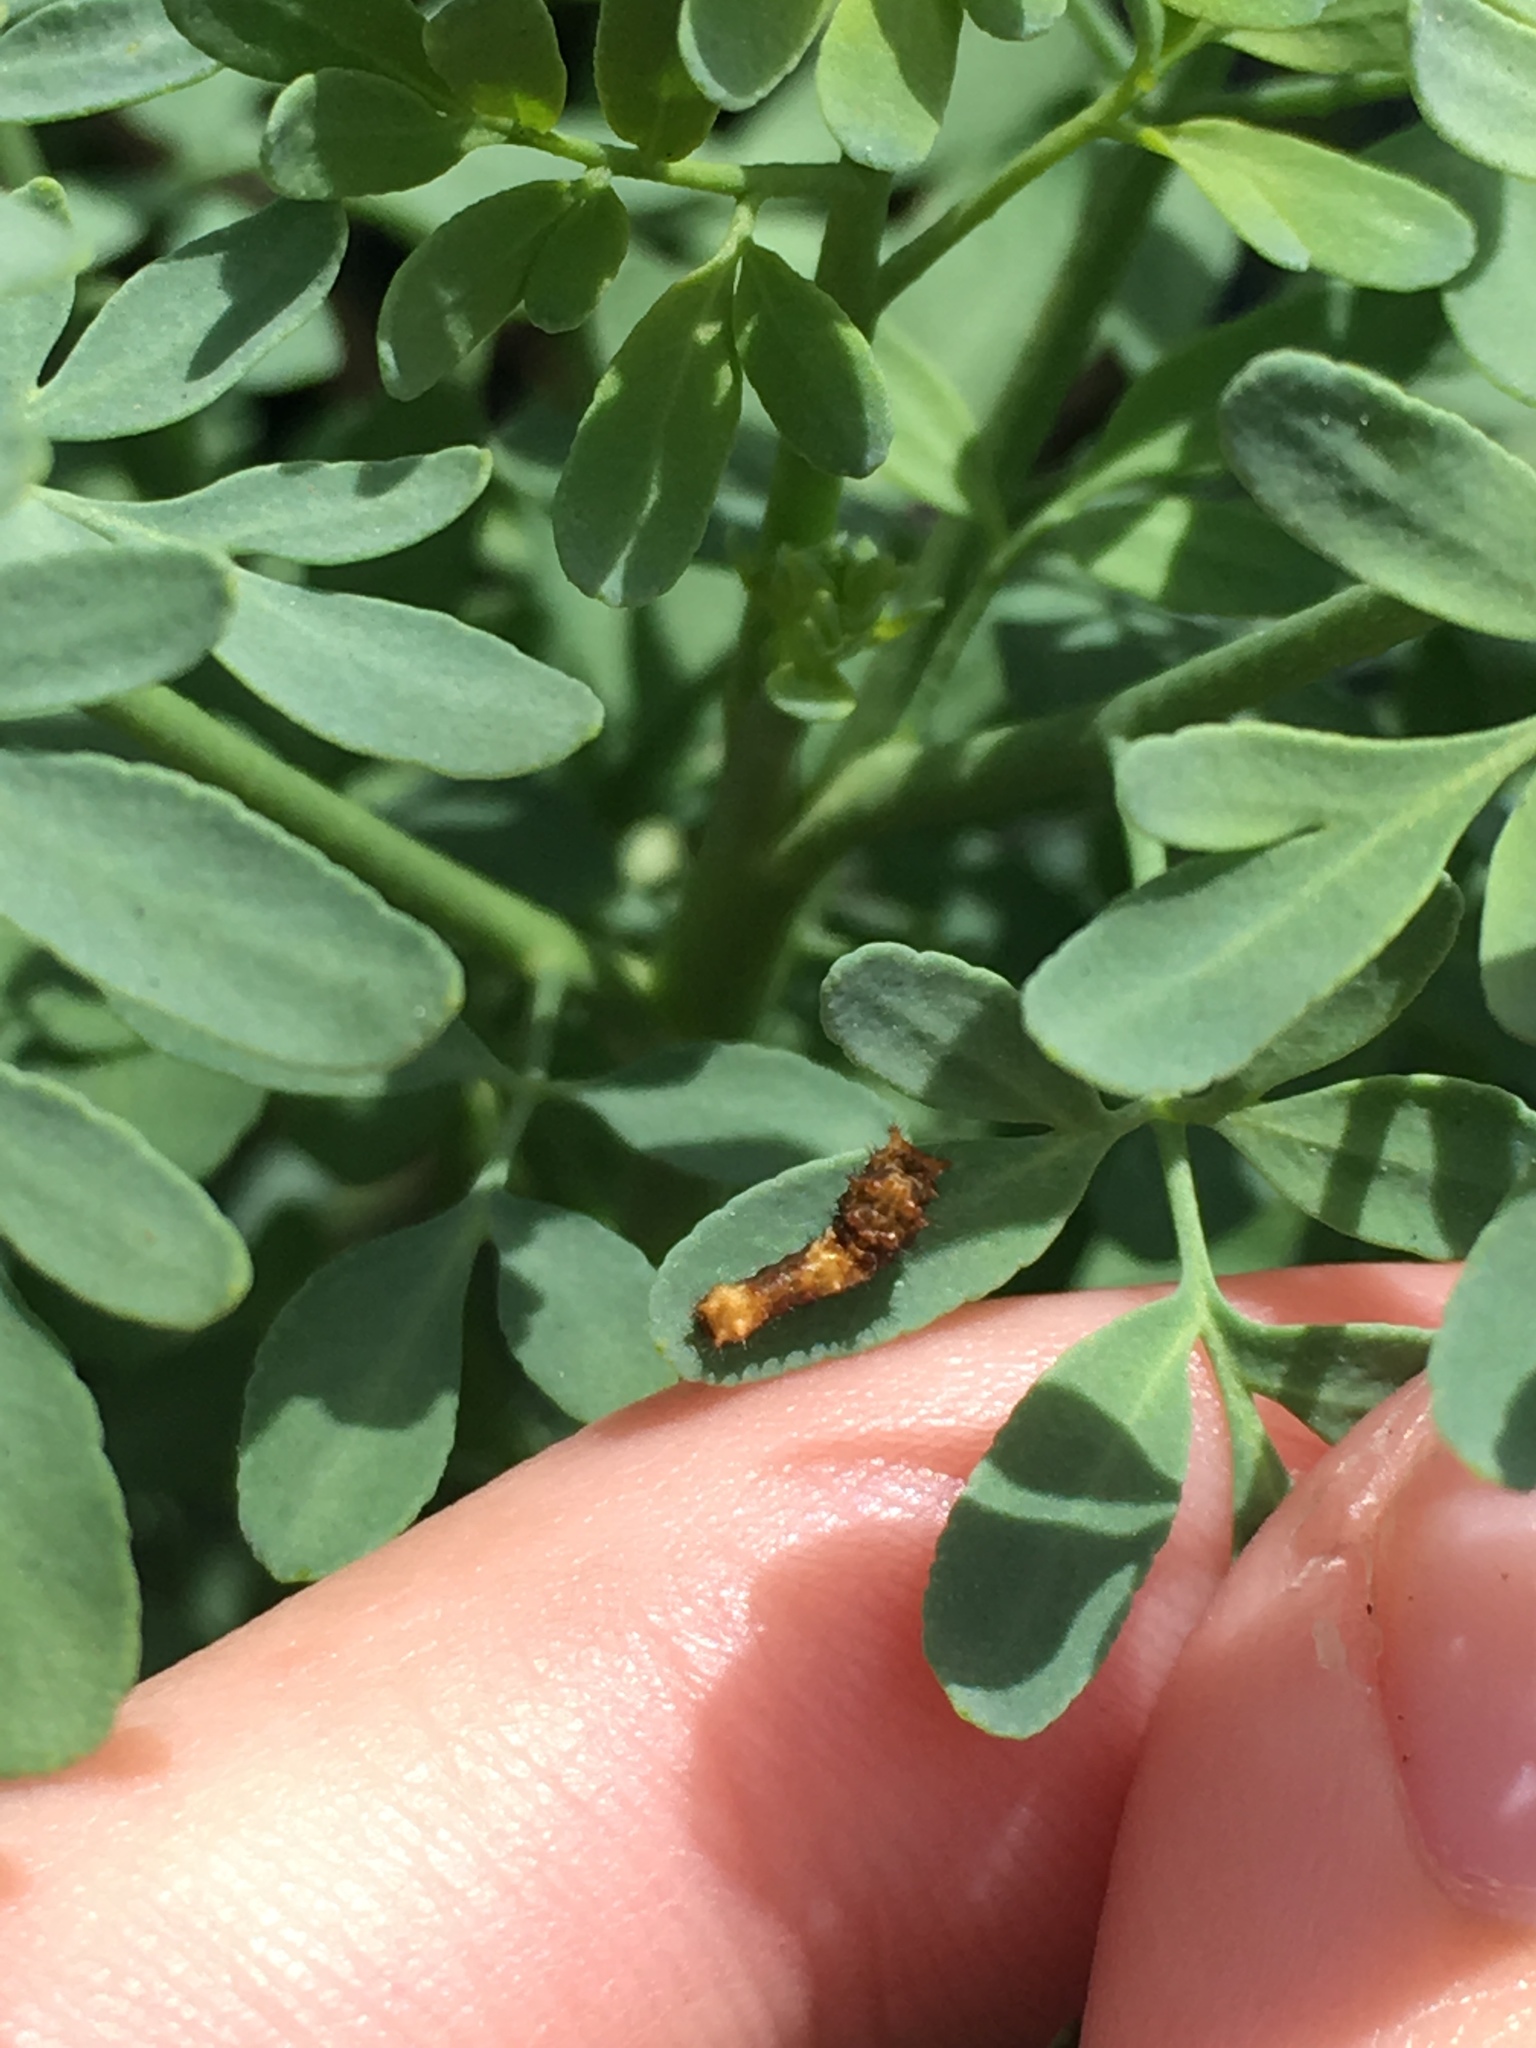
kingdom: Animalia
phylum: Arthropoda
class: Insecta
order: Lepidoptera
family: Papilionidae
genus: Papilio
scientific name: Papilio cresphontes
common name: Giant swallowtail
